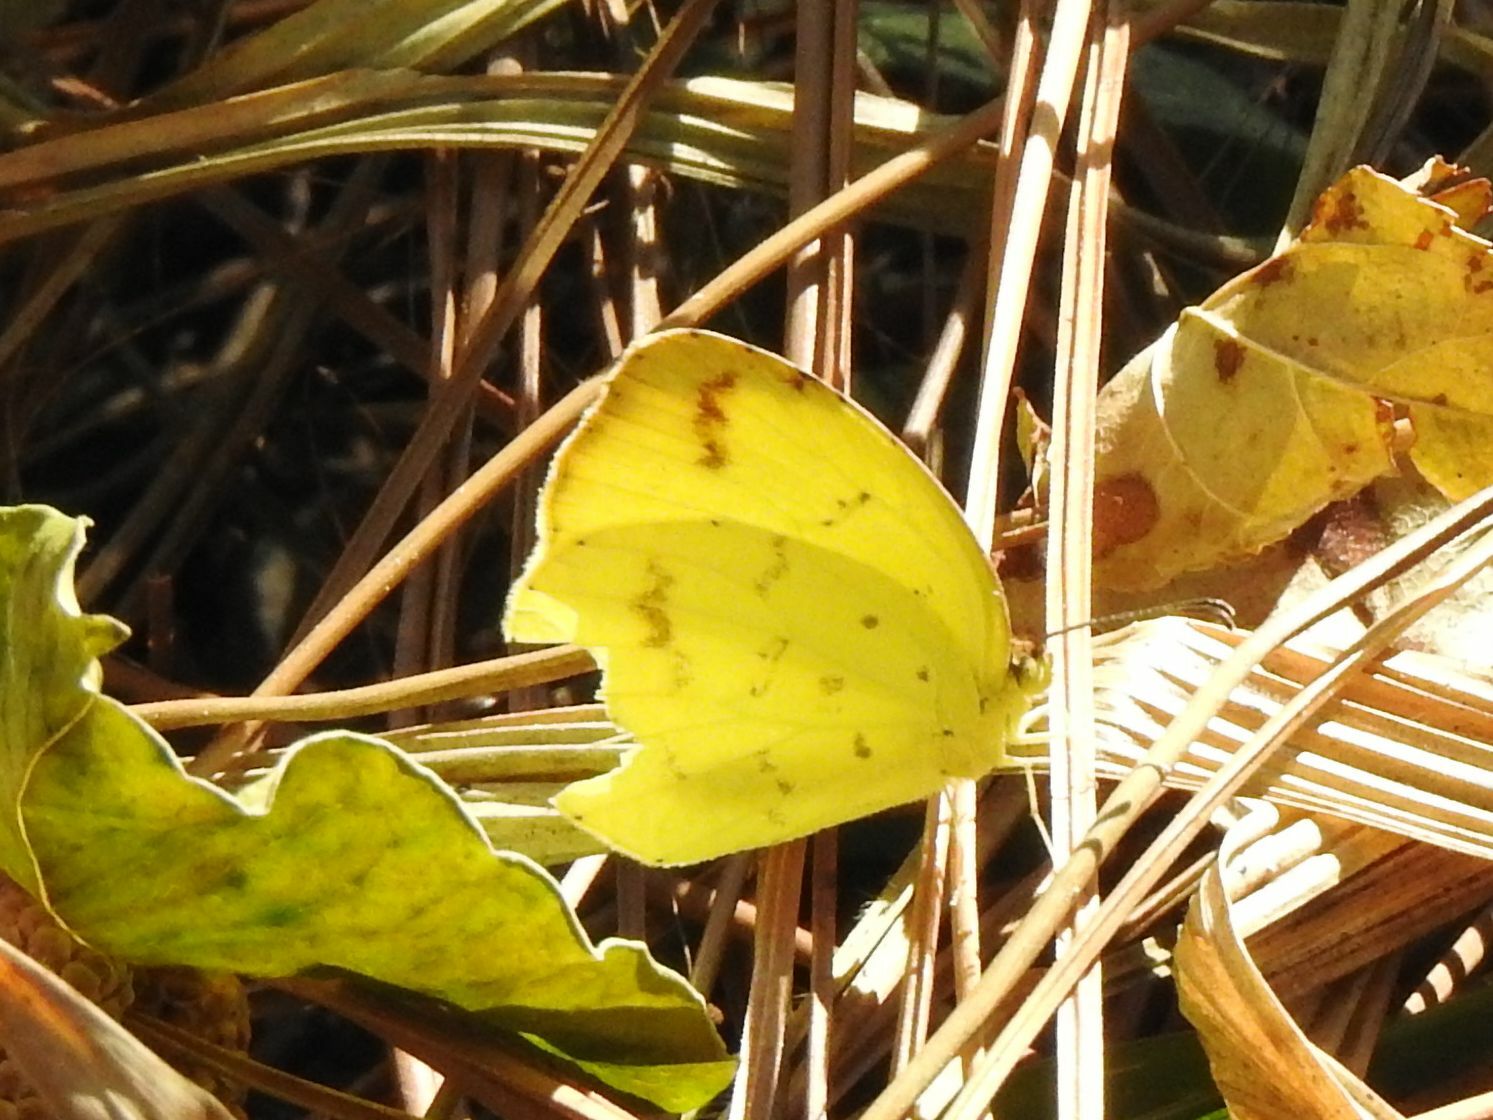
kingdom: Animalia
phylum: Arthropoda
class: Insecta
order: Lepidoptera
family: Pieridae
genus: Eurema
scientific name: Eurema desjardinsii
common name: Angled grass yellow
